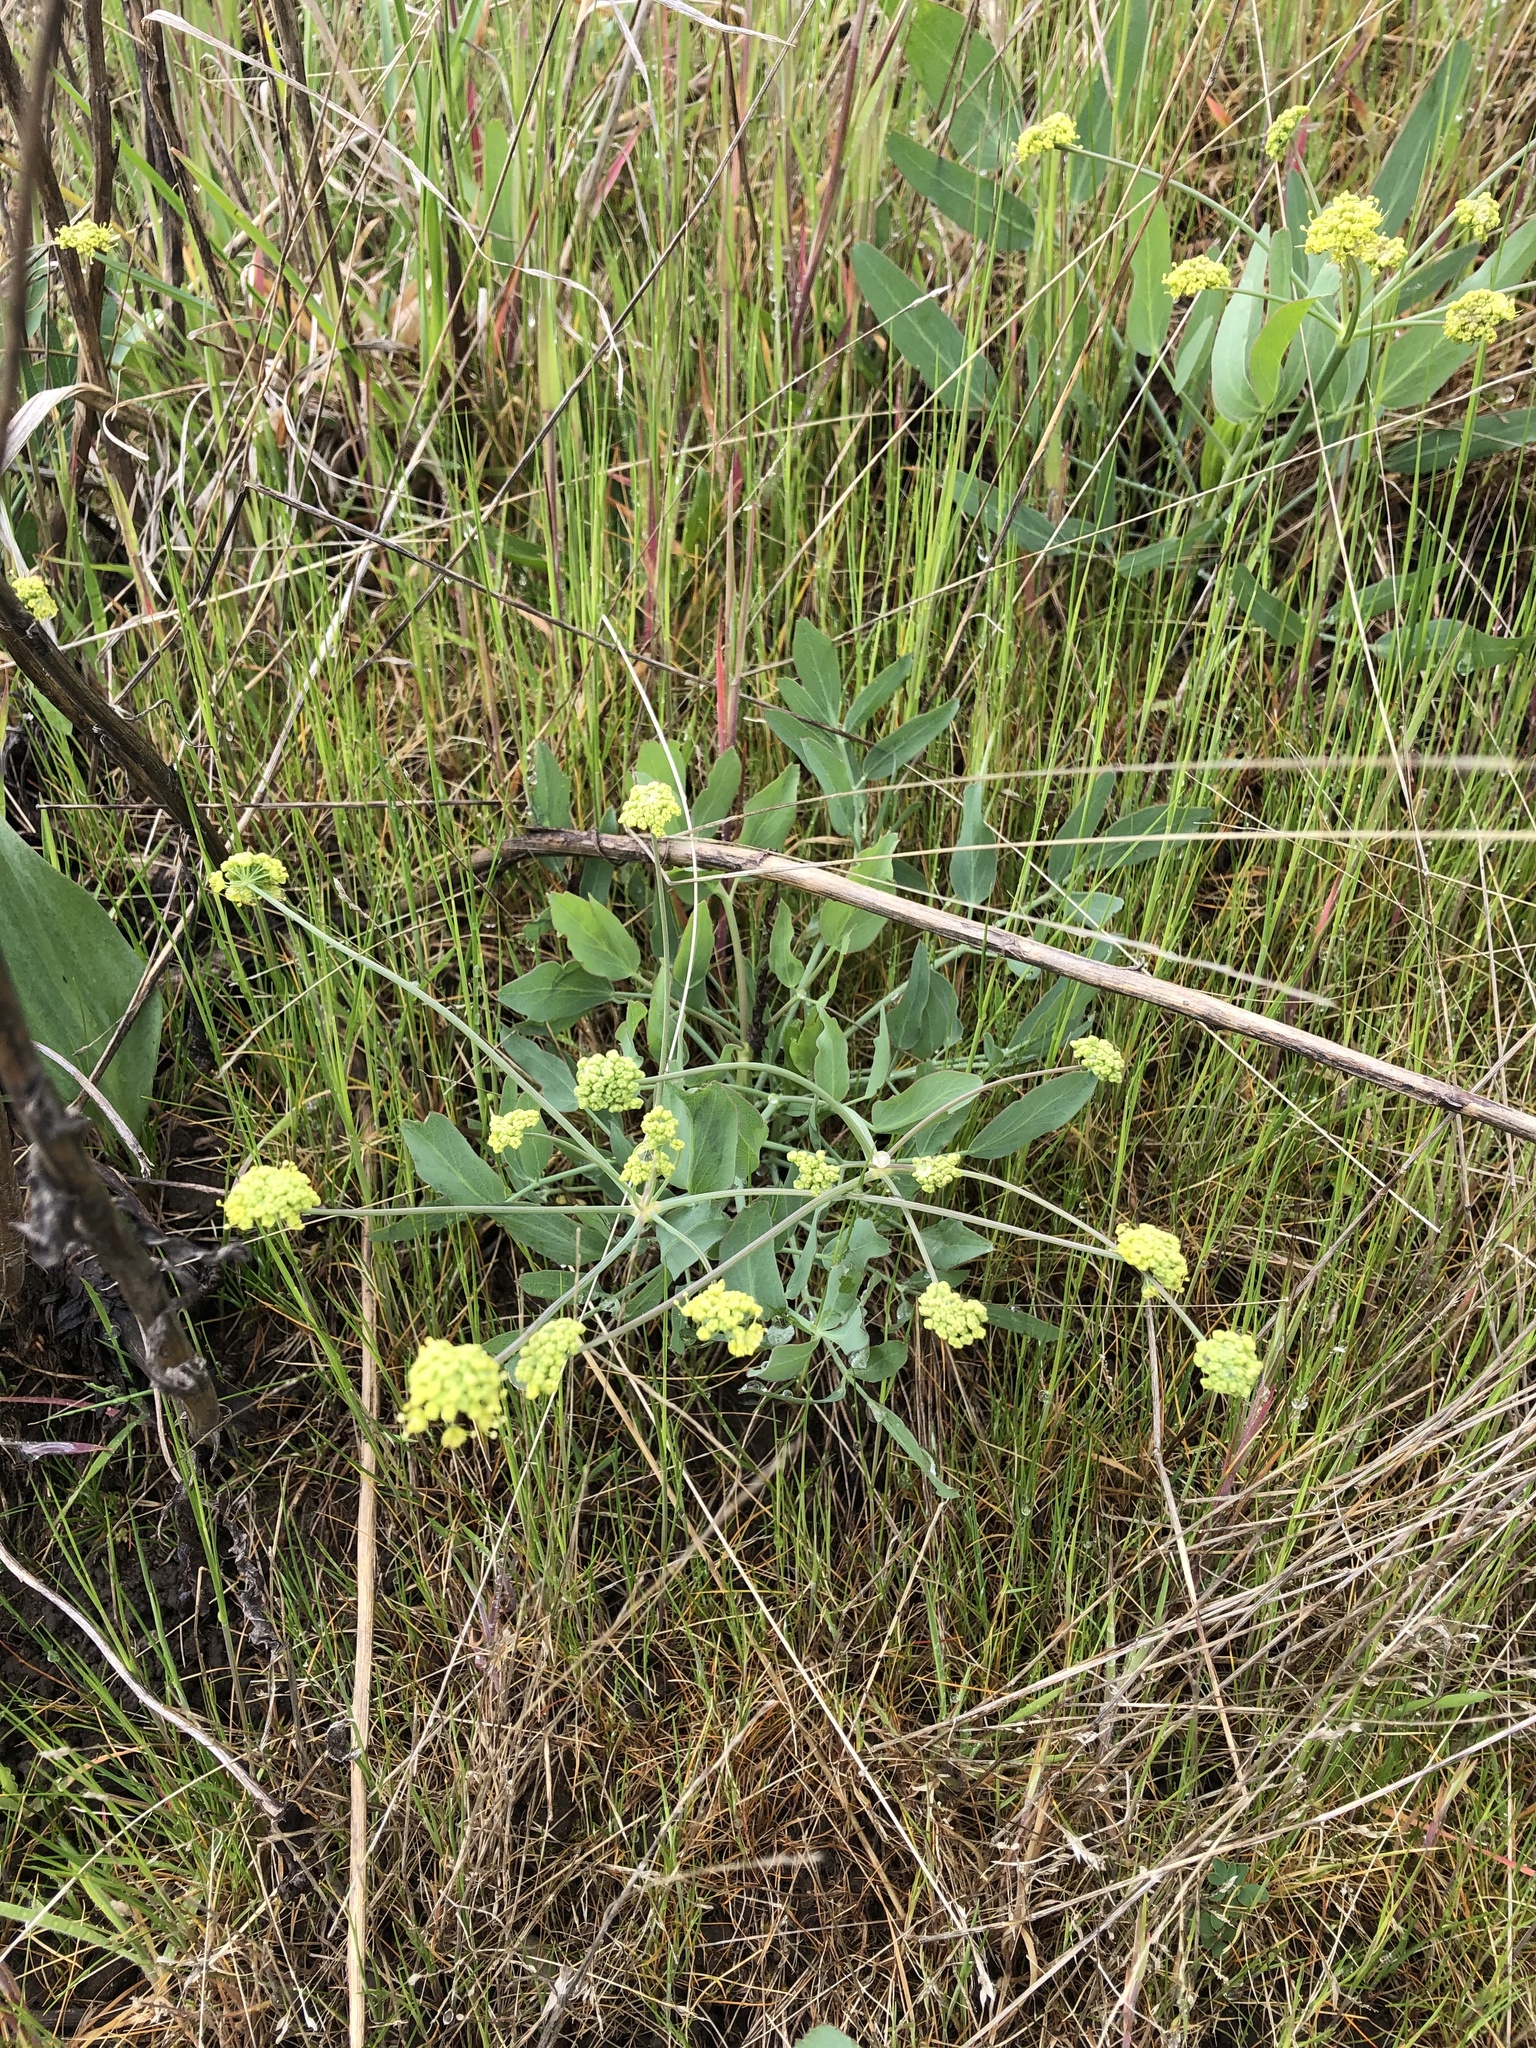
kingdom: Plantae
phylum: Tracheophyta
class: Magnoliopsida
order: Apiales
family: Apiaceae
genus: Lomatium
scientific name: Lomatium nudicaule
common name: Pestle lomatium
